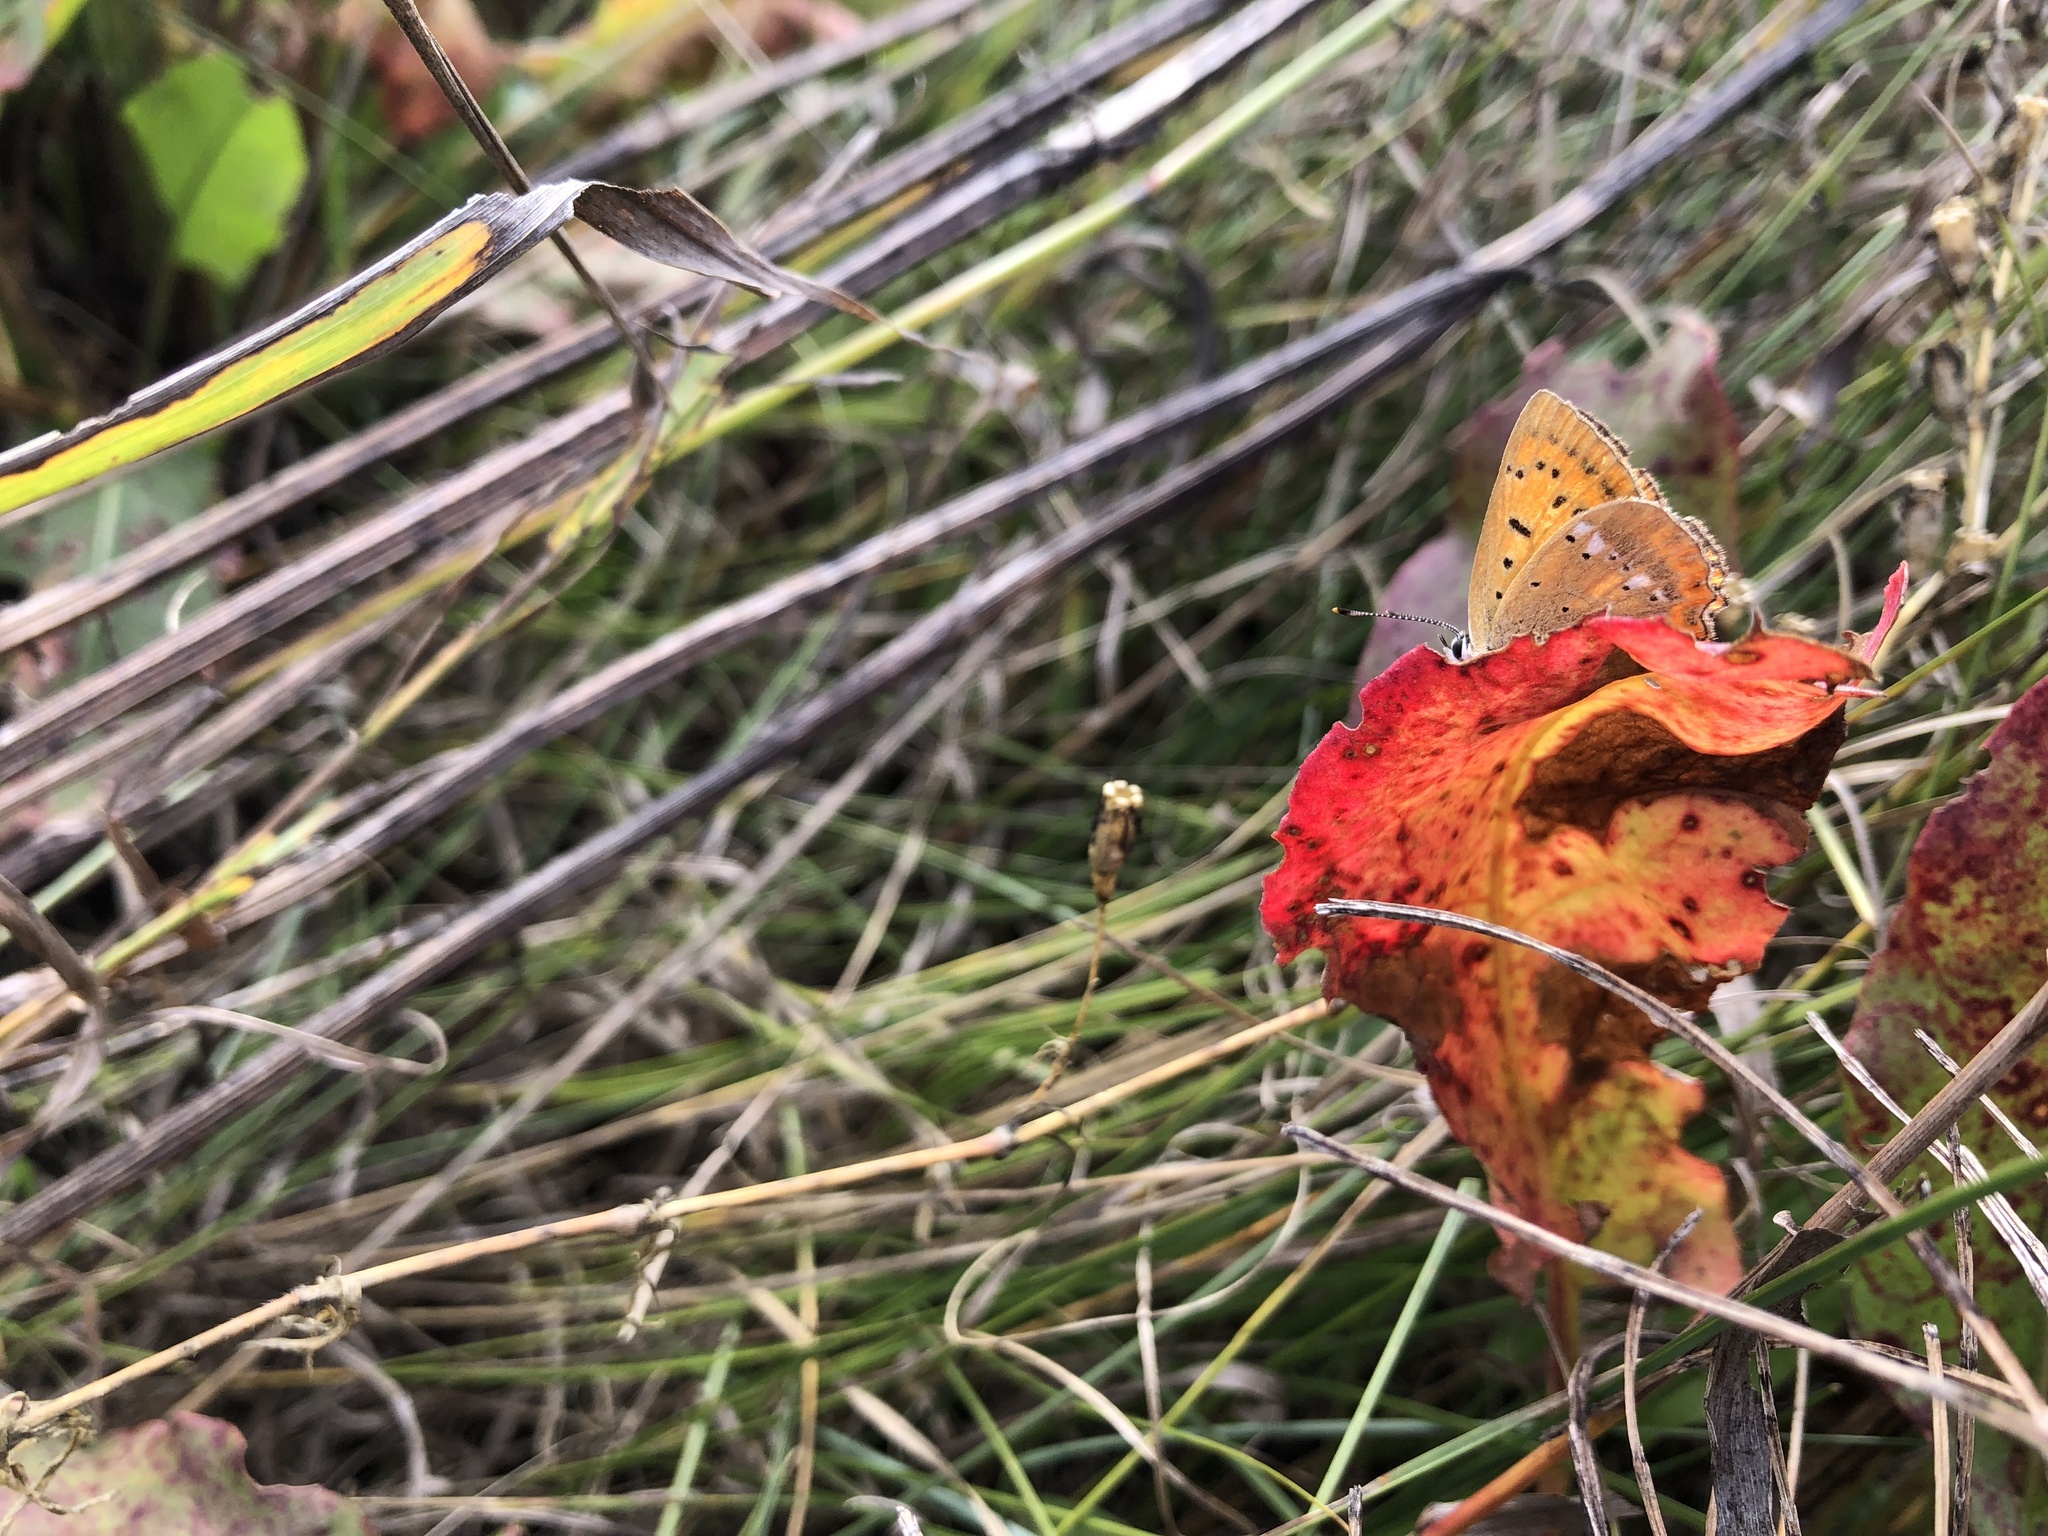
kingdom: Animalia
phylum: Arthropoda
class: Insecta
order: Lepidoptera
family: Lycaenidae
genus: Lycaena
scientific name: Lycaena virgaureae
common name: Scarce copper
